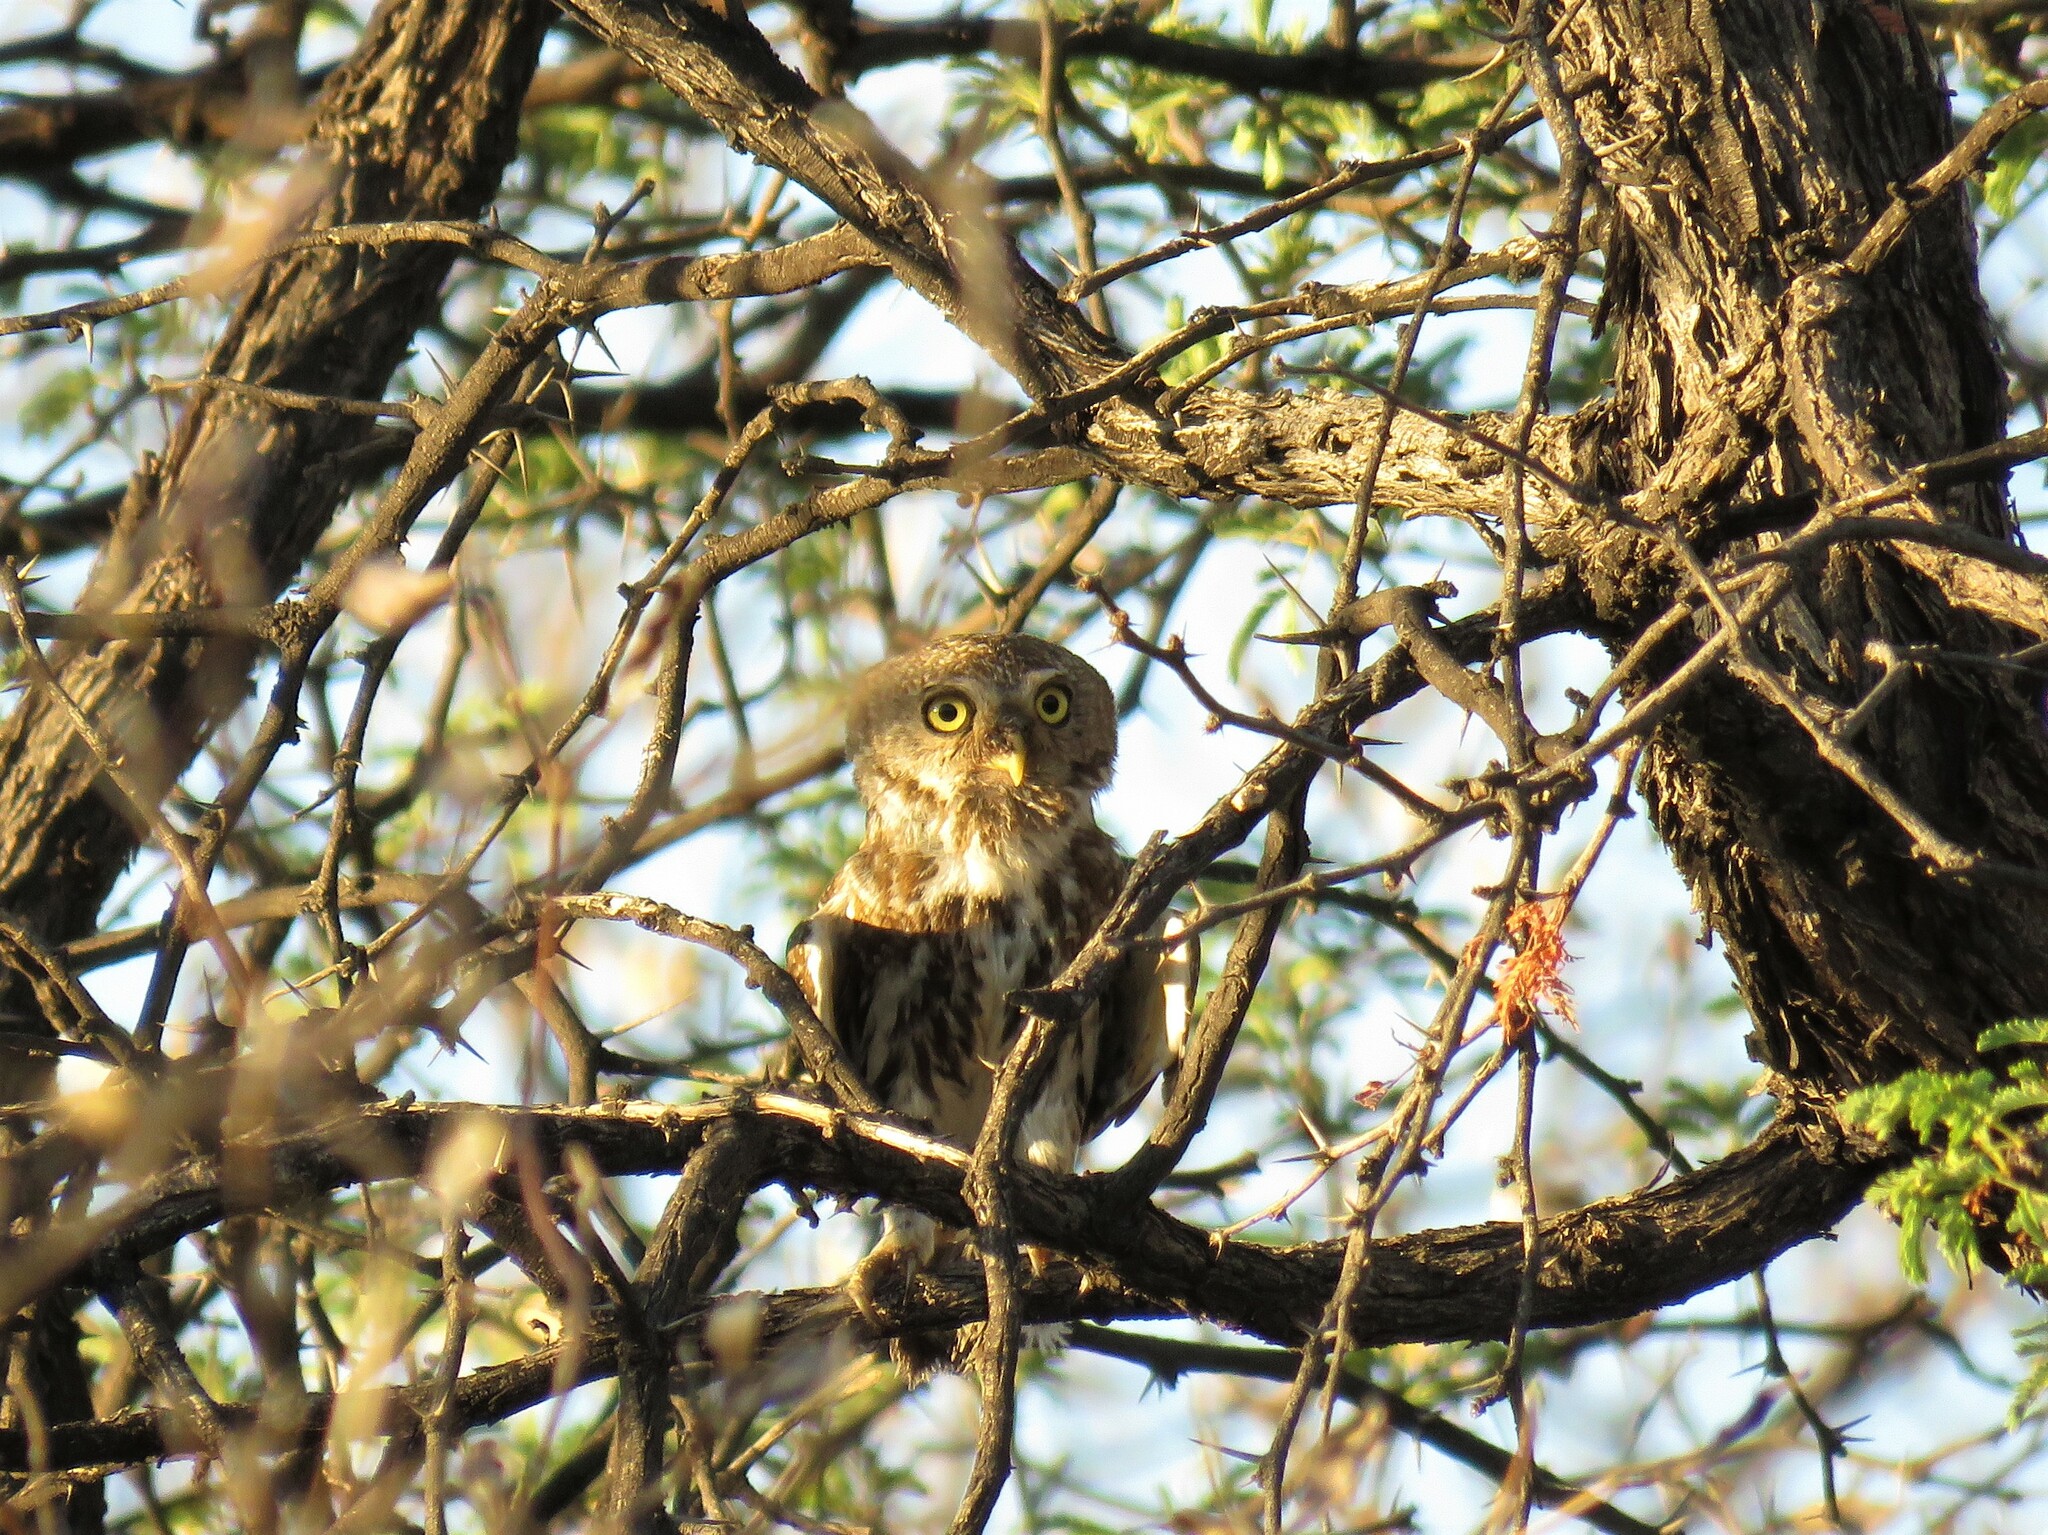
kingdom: Animalia
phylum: Chordata
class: Aves
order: Strigiformes
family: Strigidae
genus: Glaucidium
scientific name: Glaucidium perlatum
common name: Pearl-spotted owlet
